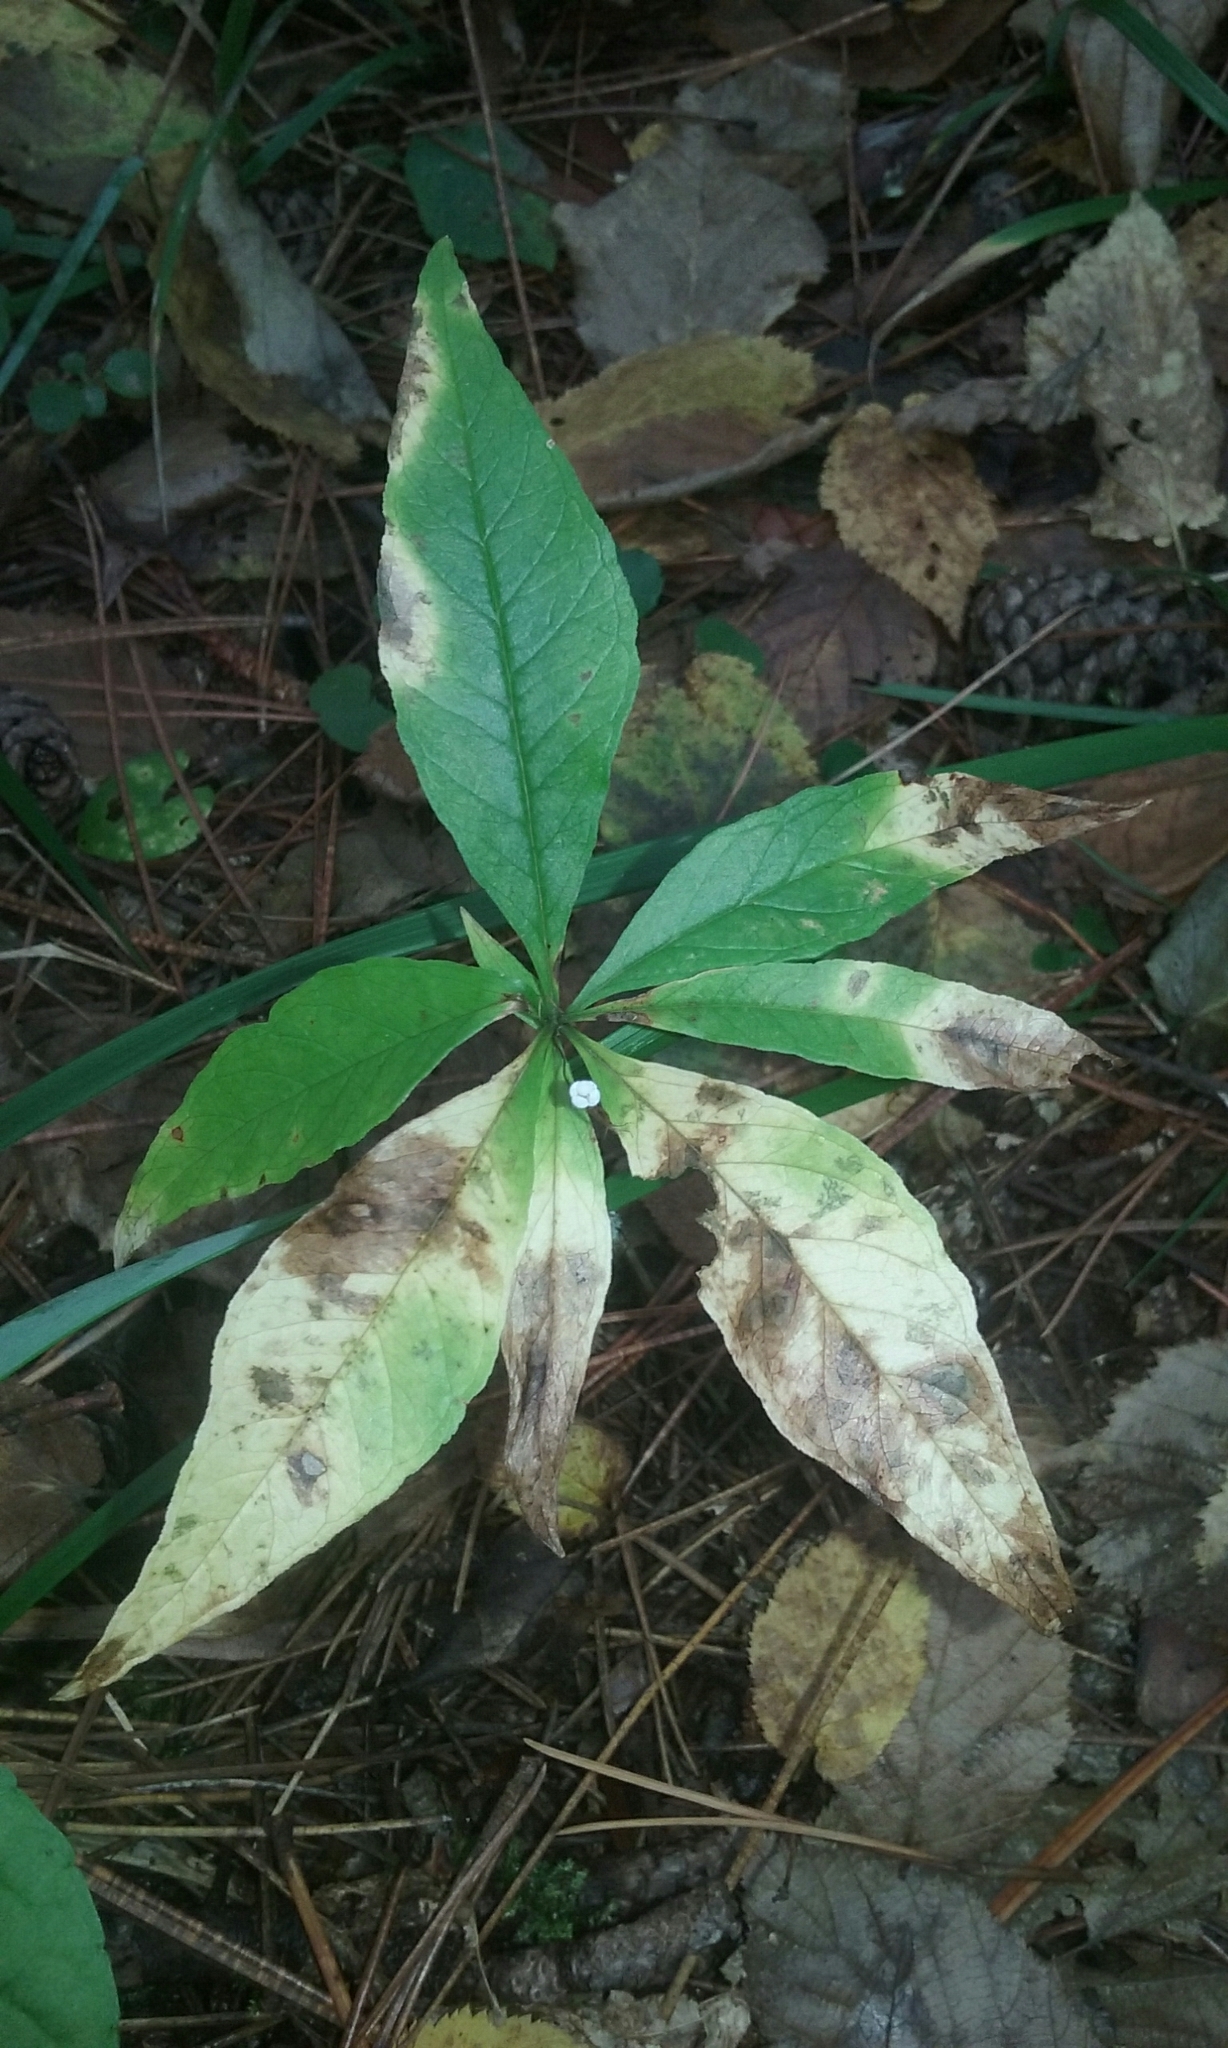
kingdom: Plantae
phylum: Tracheophyta
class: Magnoliopsida
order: Ericales
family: Primulaceae
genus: Lysimachia
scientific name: Lysimachia borealis
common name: American starflower
